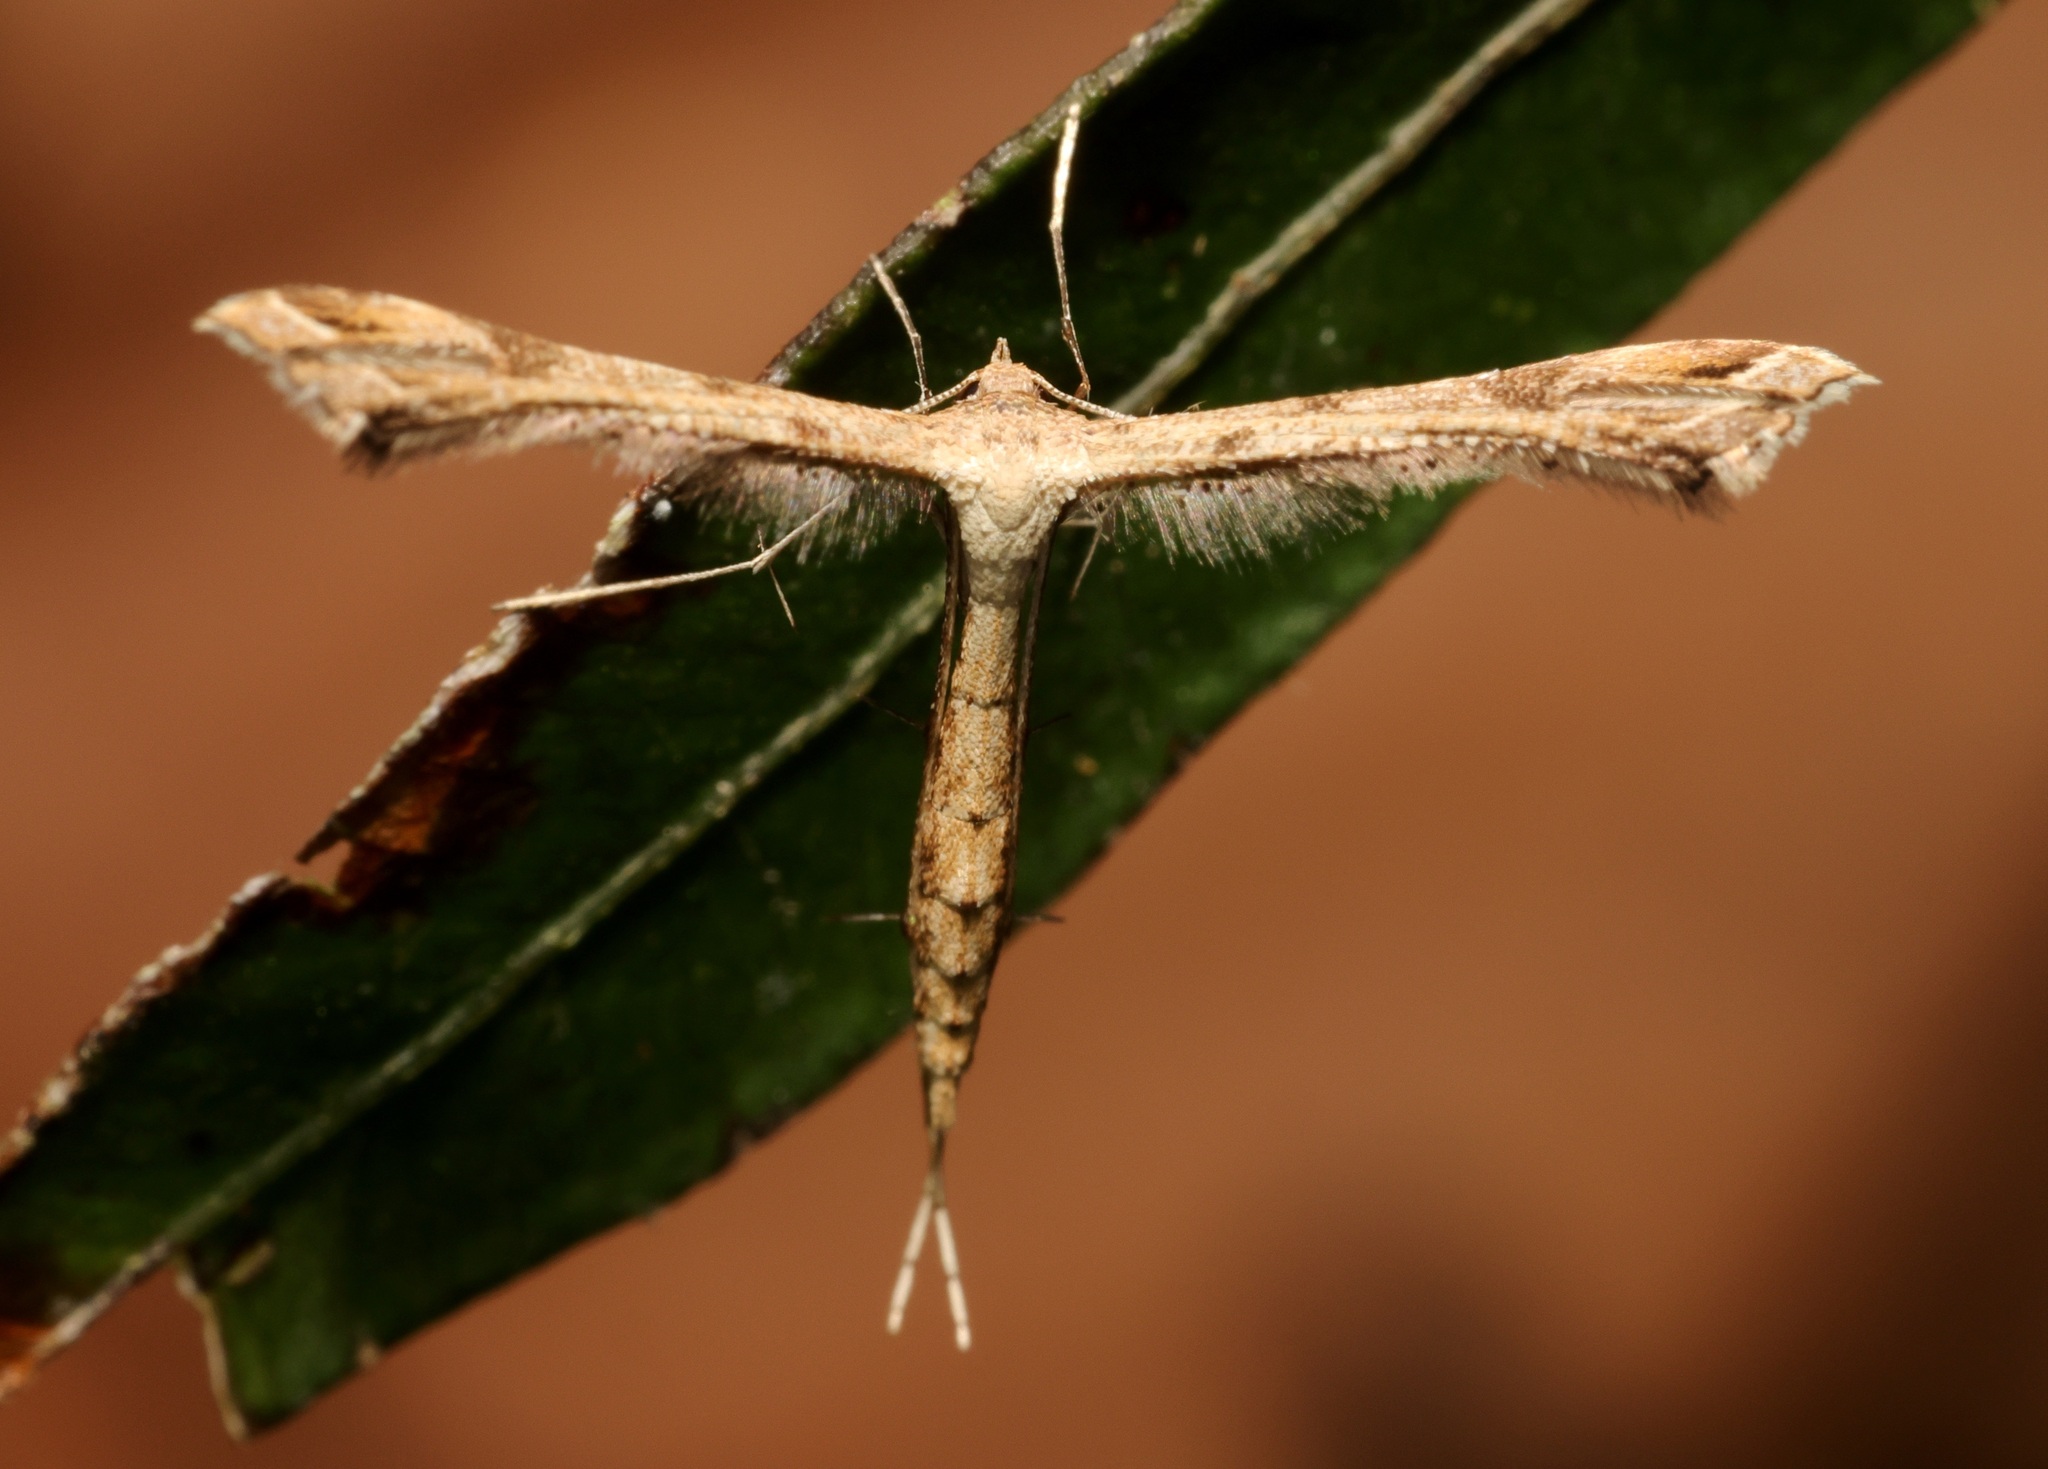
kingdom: Animalia
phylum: Arthropoda
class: Insecta
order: Lepidoptera
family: Pterophoridae
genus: Stenoptilodes
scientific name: Stenoptilodes taprobanes
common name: Moth
